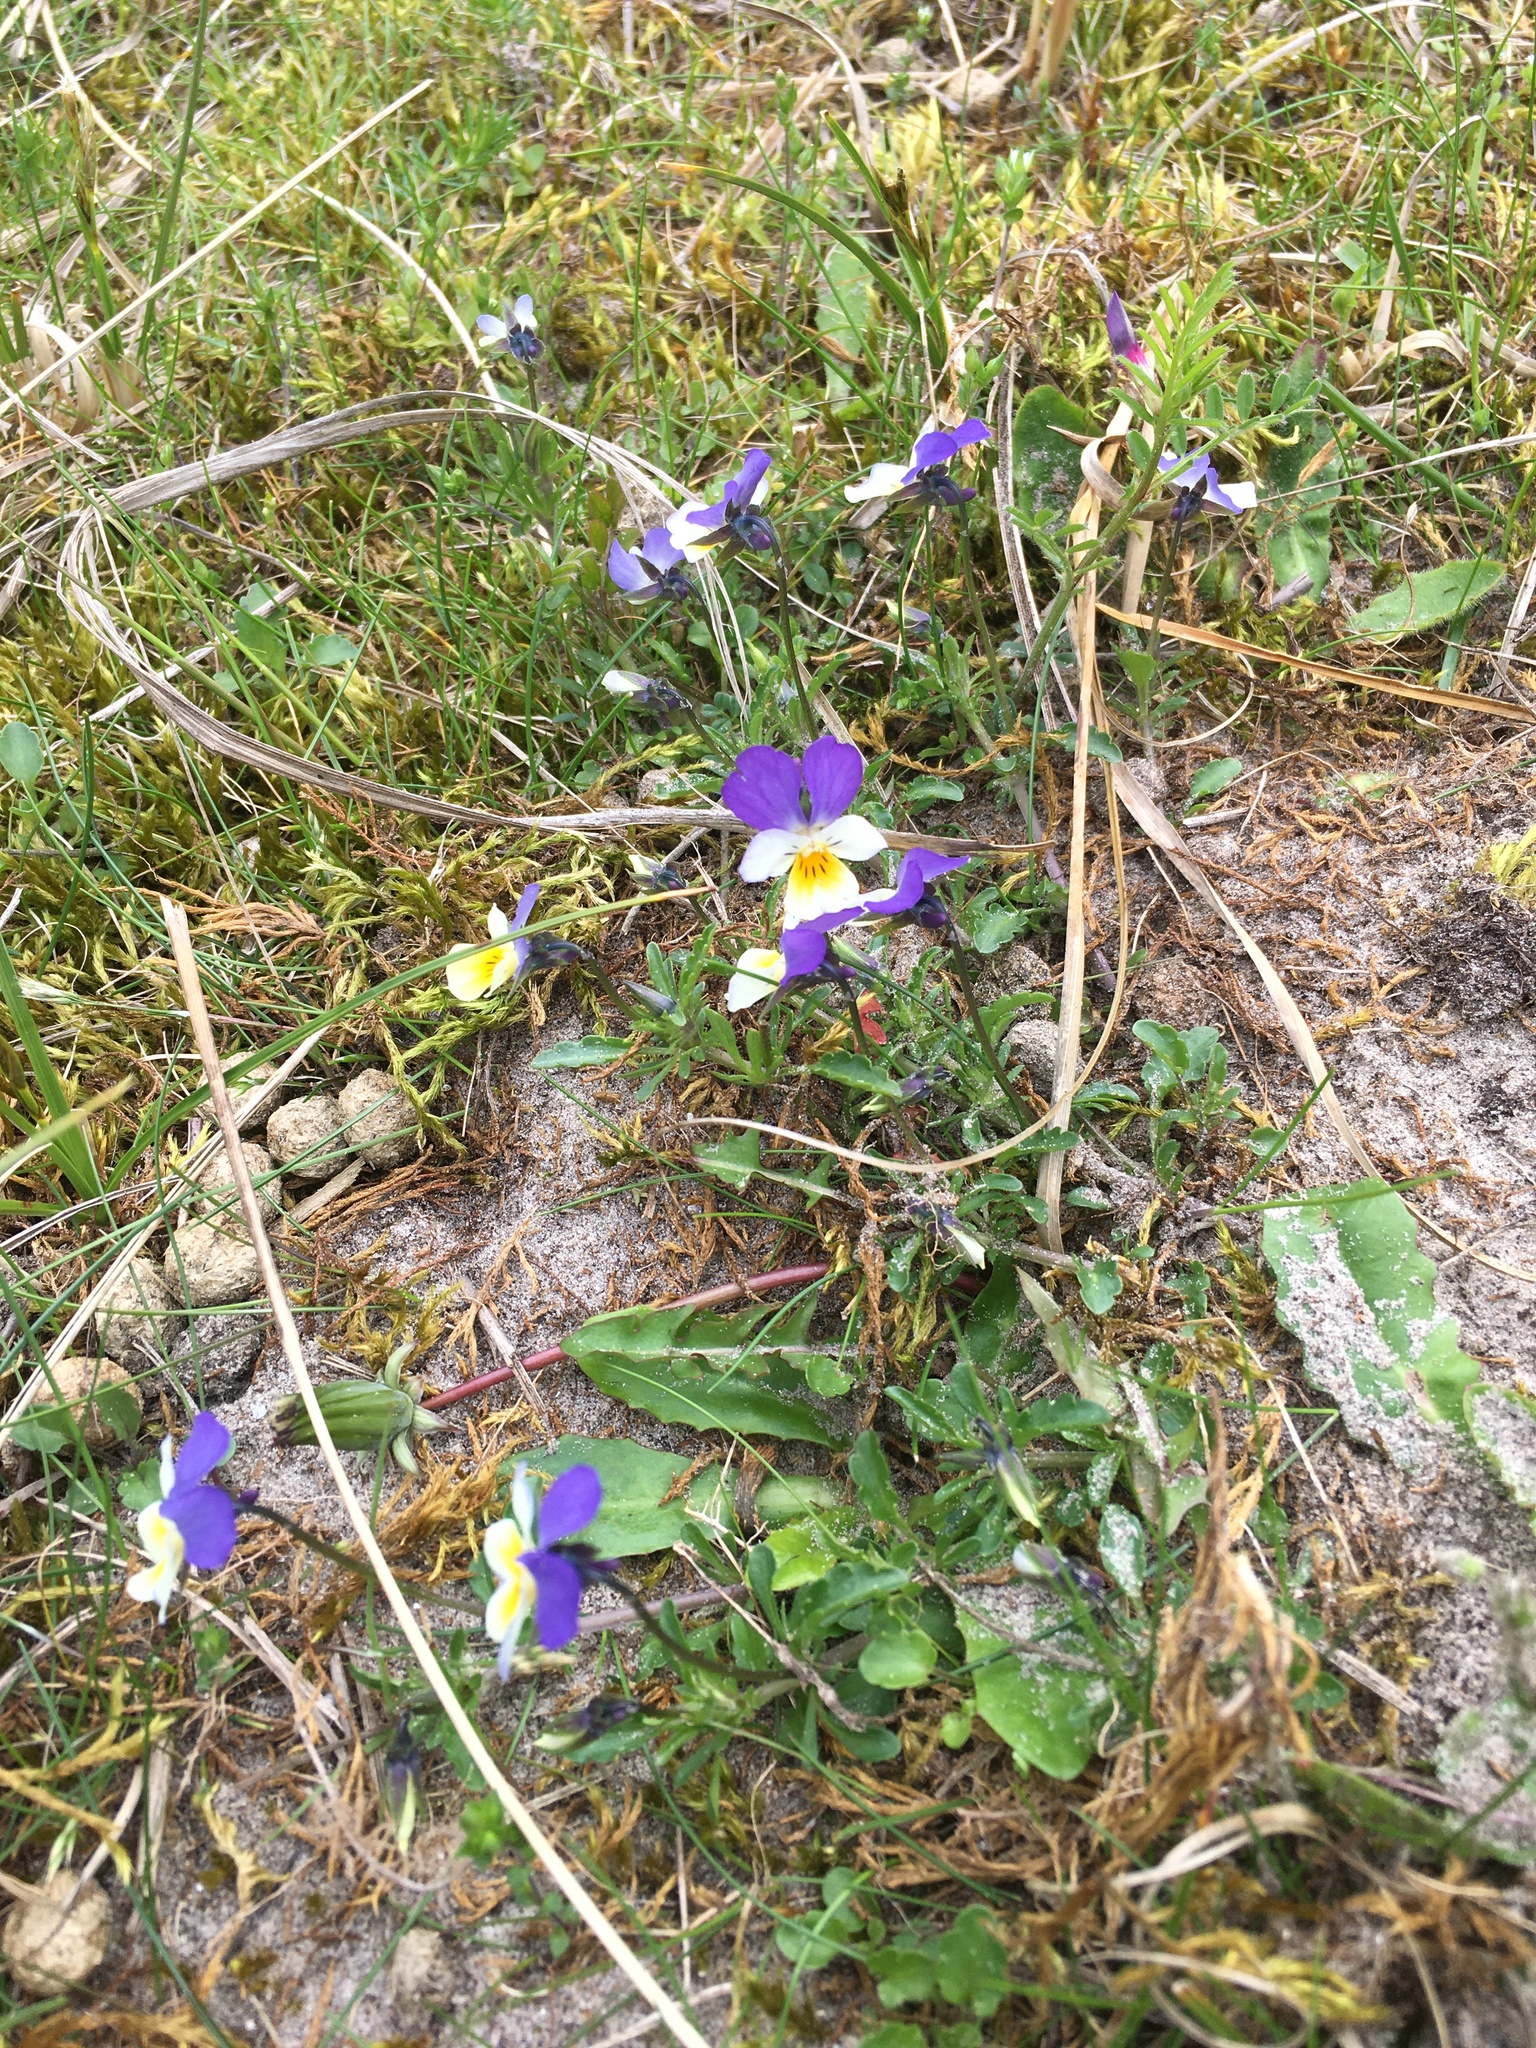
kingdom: Plantae
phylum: Tracheophyta
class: Magnoliopsida
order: Malpighiales
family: Violaceae
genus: Viola
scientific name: Viola tricolor
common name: Pansy
